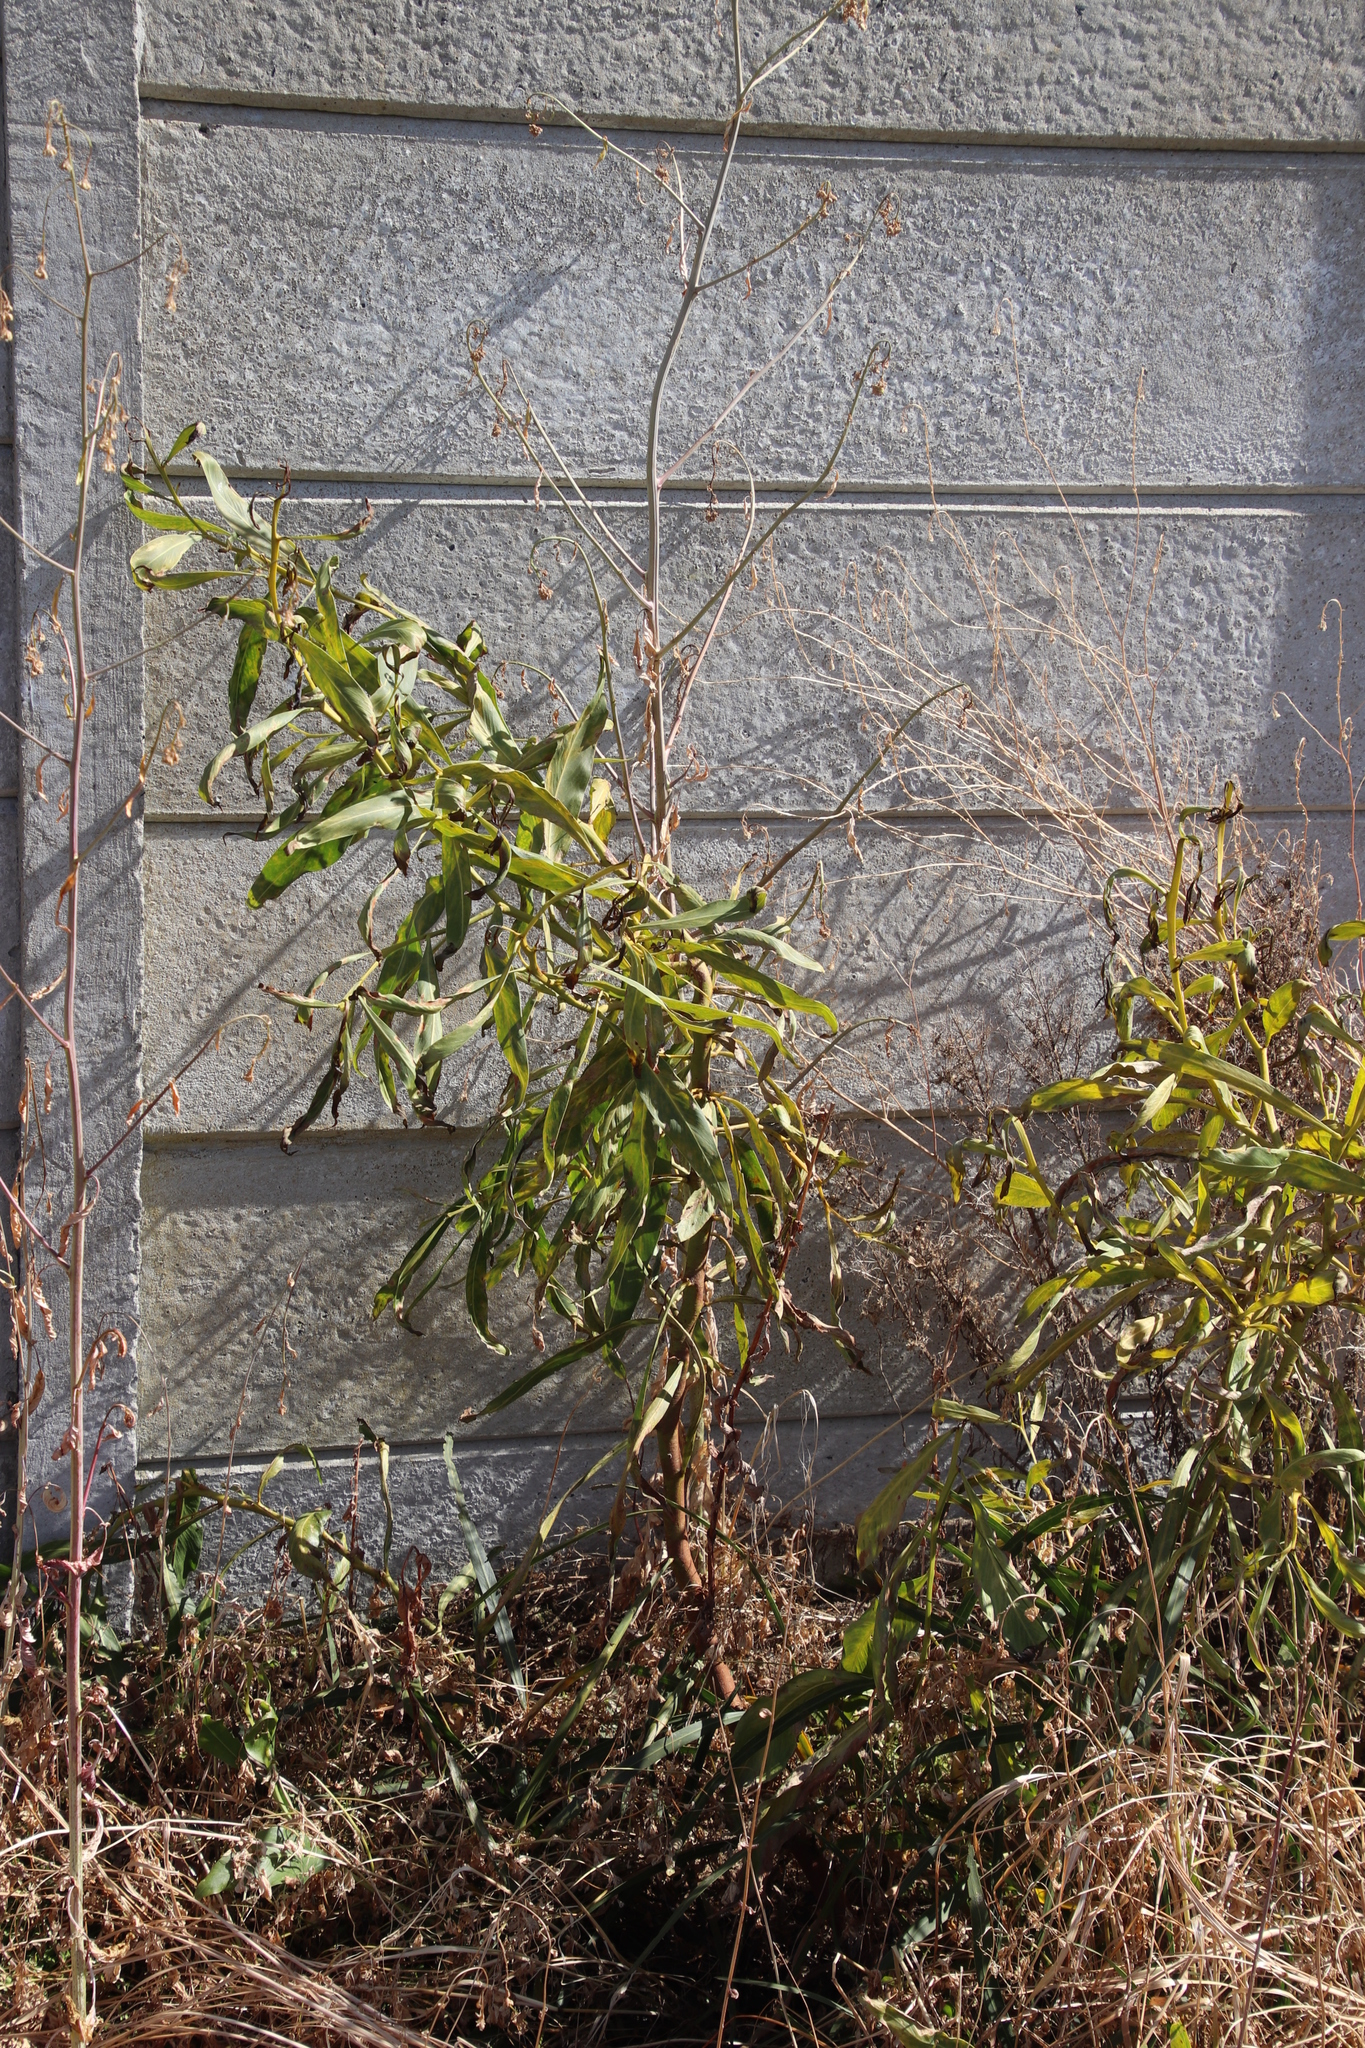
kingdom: Plantae
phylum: Tracheophyta
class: Magnoliopsida
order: Fabales
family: Fabaceae
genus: Acacia
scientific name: Acacia saligna
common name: Orange wattle
